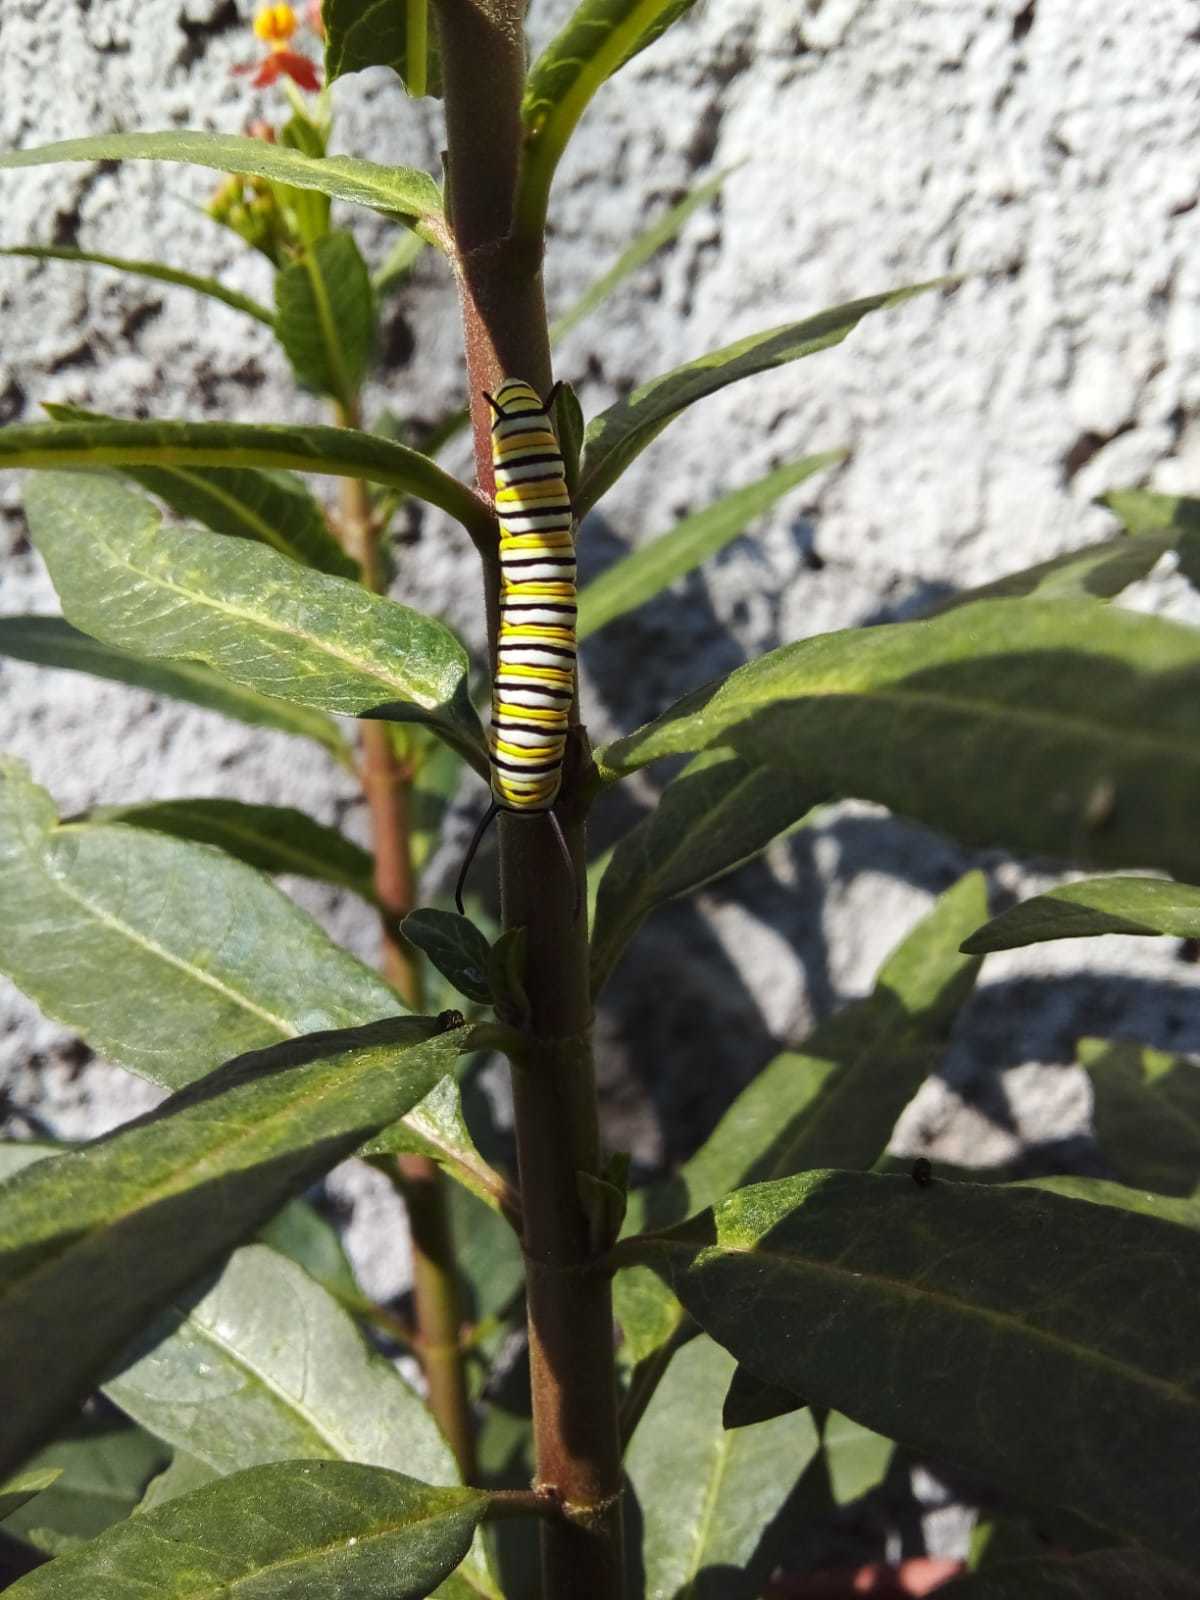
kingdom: Animalia
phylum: Arthropoda
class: Insecta
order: Lepidoptera
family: Nymphalidae
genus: Danaus
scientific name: Danaus plexippus
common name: Monarch
